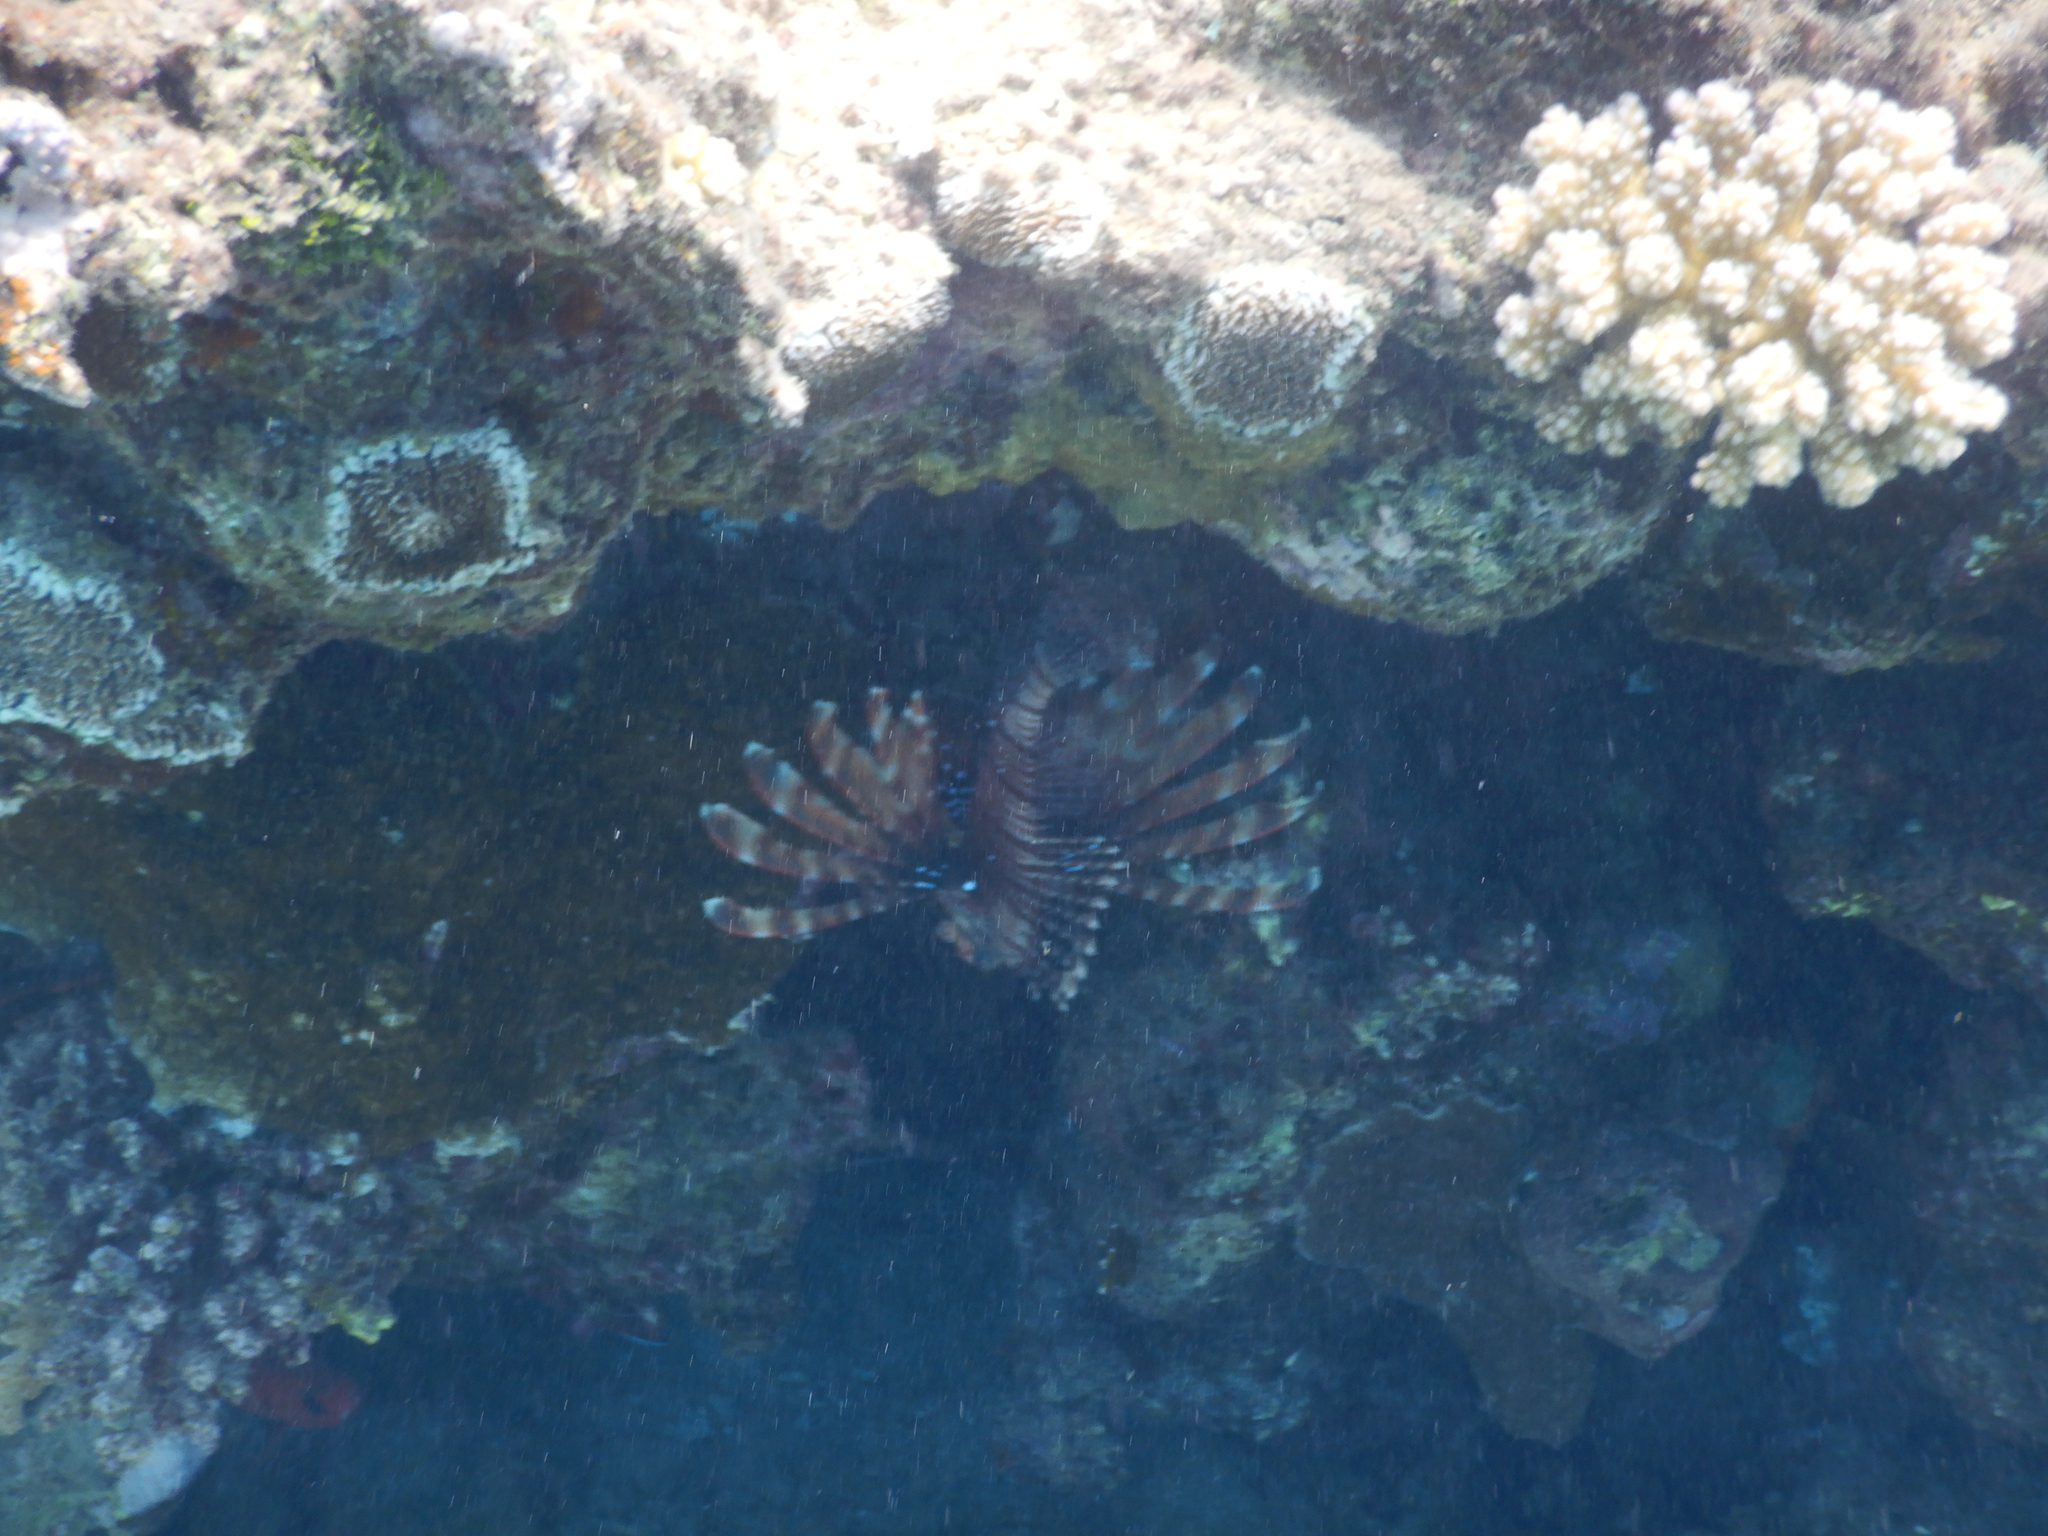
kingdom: Animalia
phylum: Chordata
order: Scorpaeniformes
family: Scorpaenidae
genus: Pterois
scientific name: Pterois miles
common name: Devil firefish
